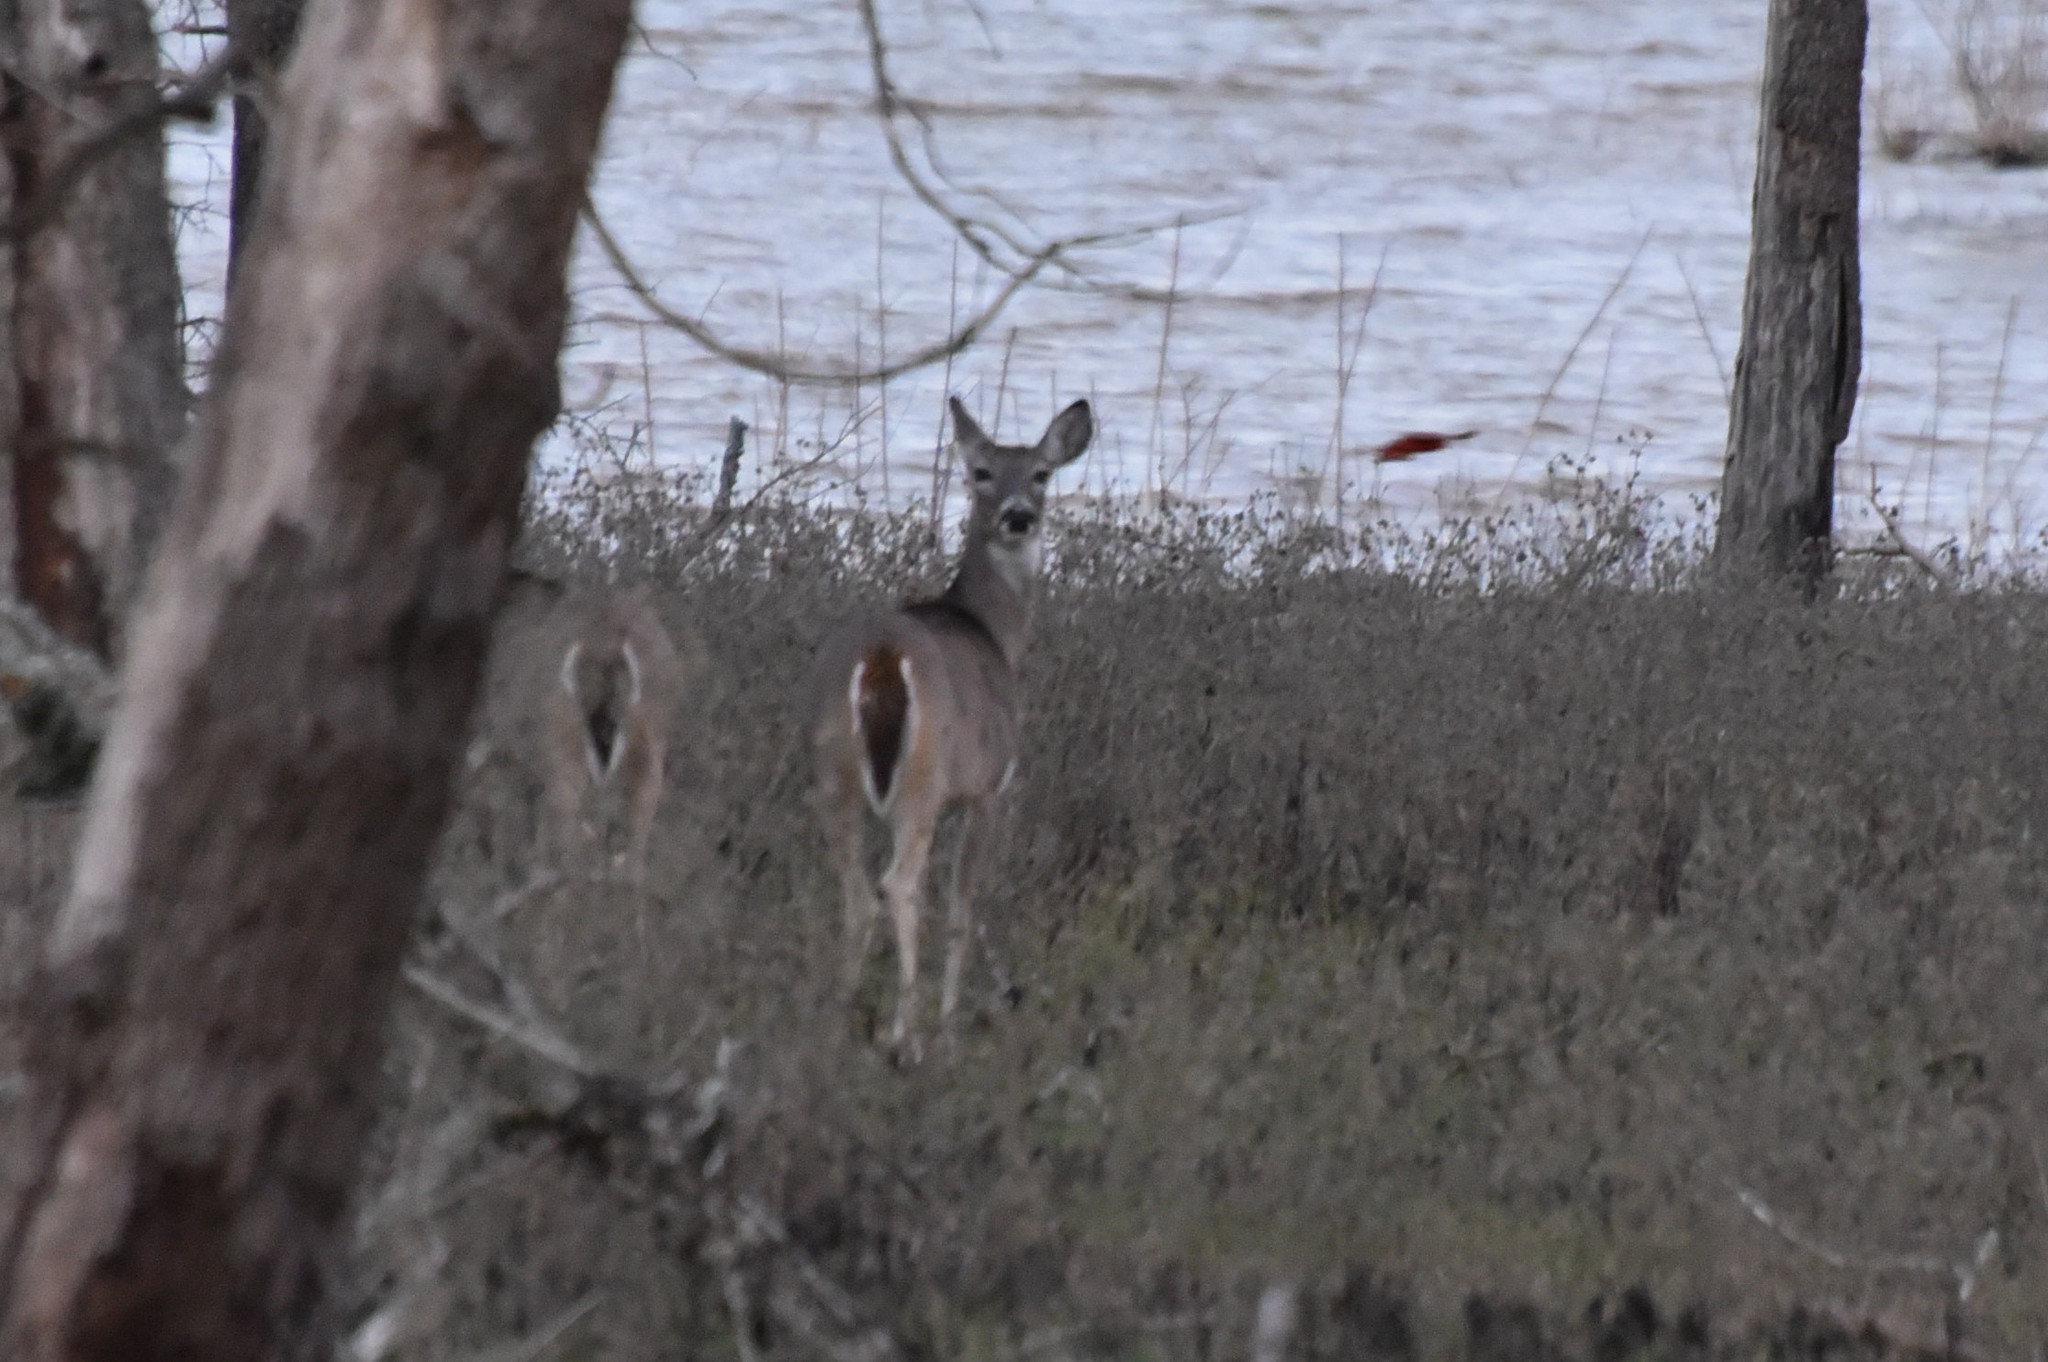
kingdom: Animalia
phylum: Chordata
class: Mammalia
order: Artiodactyla
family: Cervidae
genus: Odocoileus
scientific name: Odocoileus virginianus
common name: White-tailed deer
